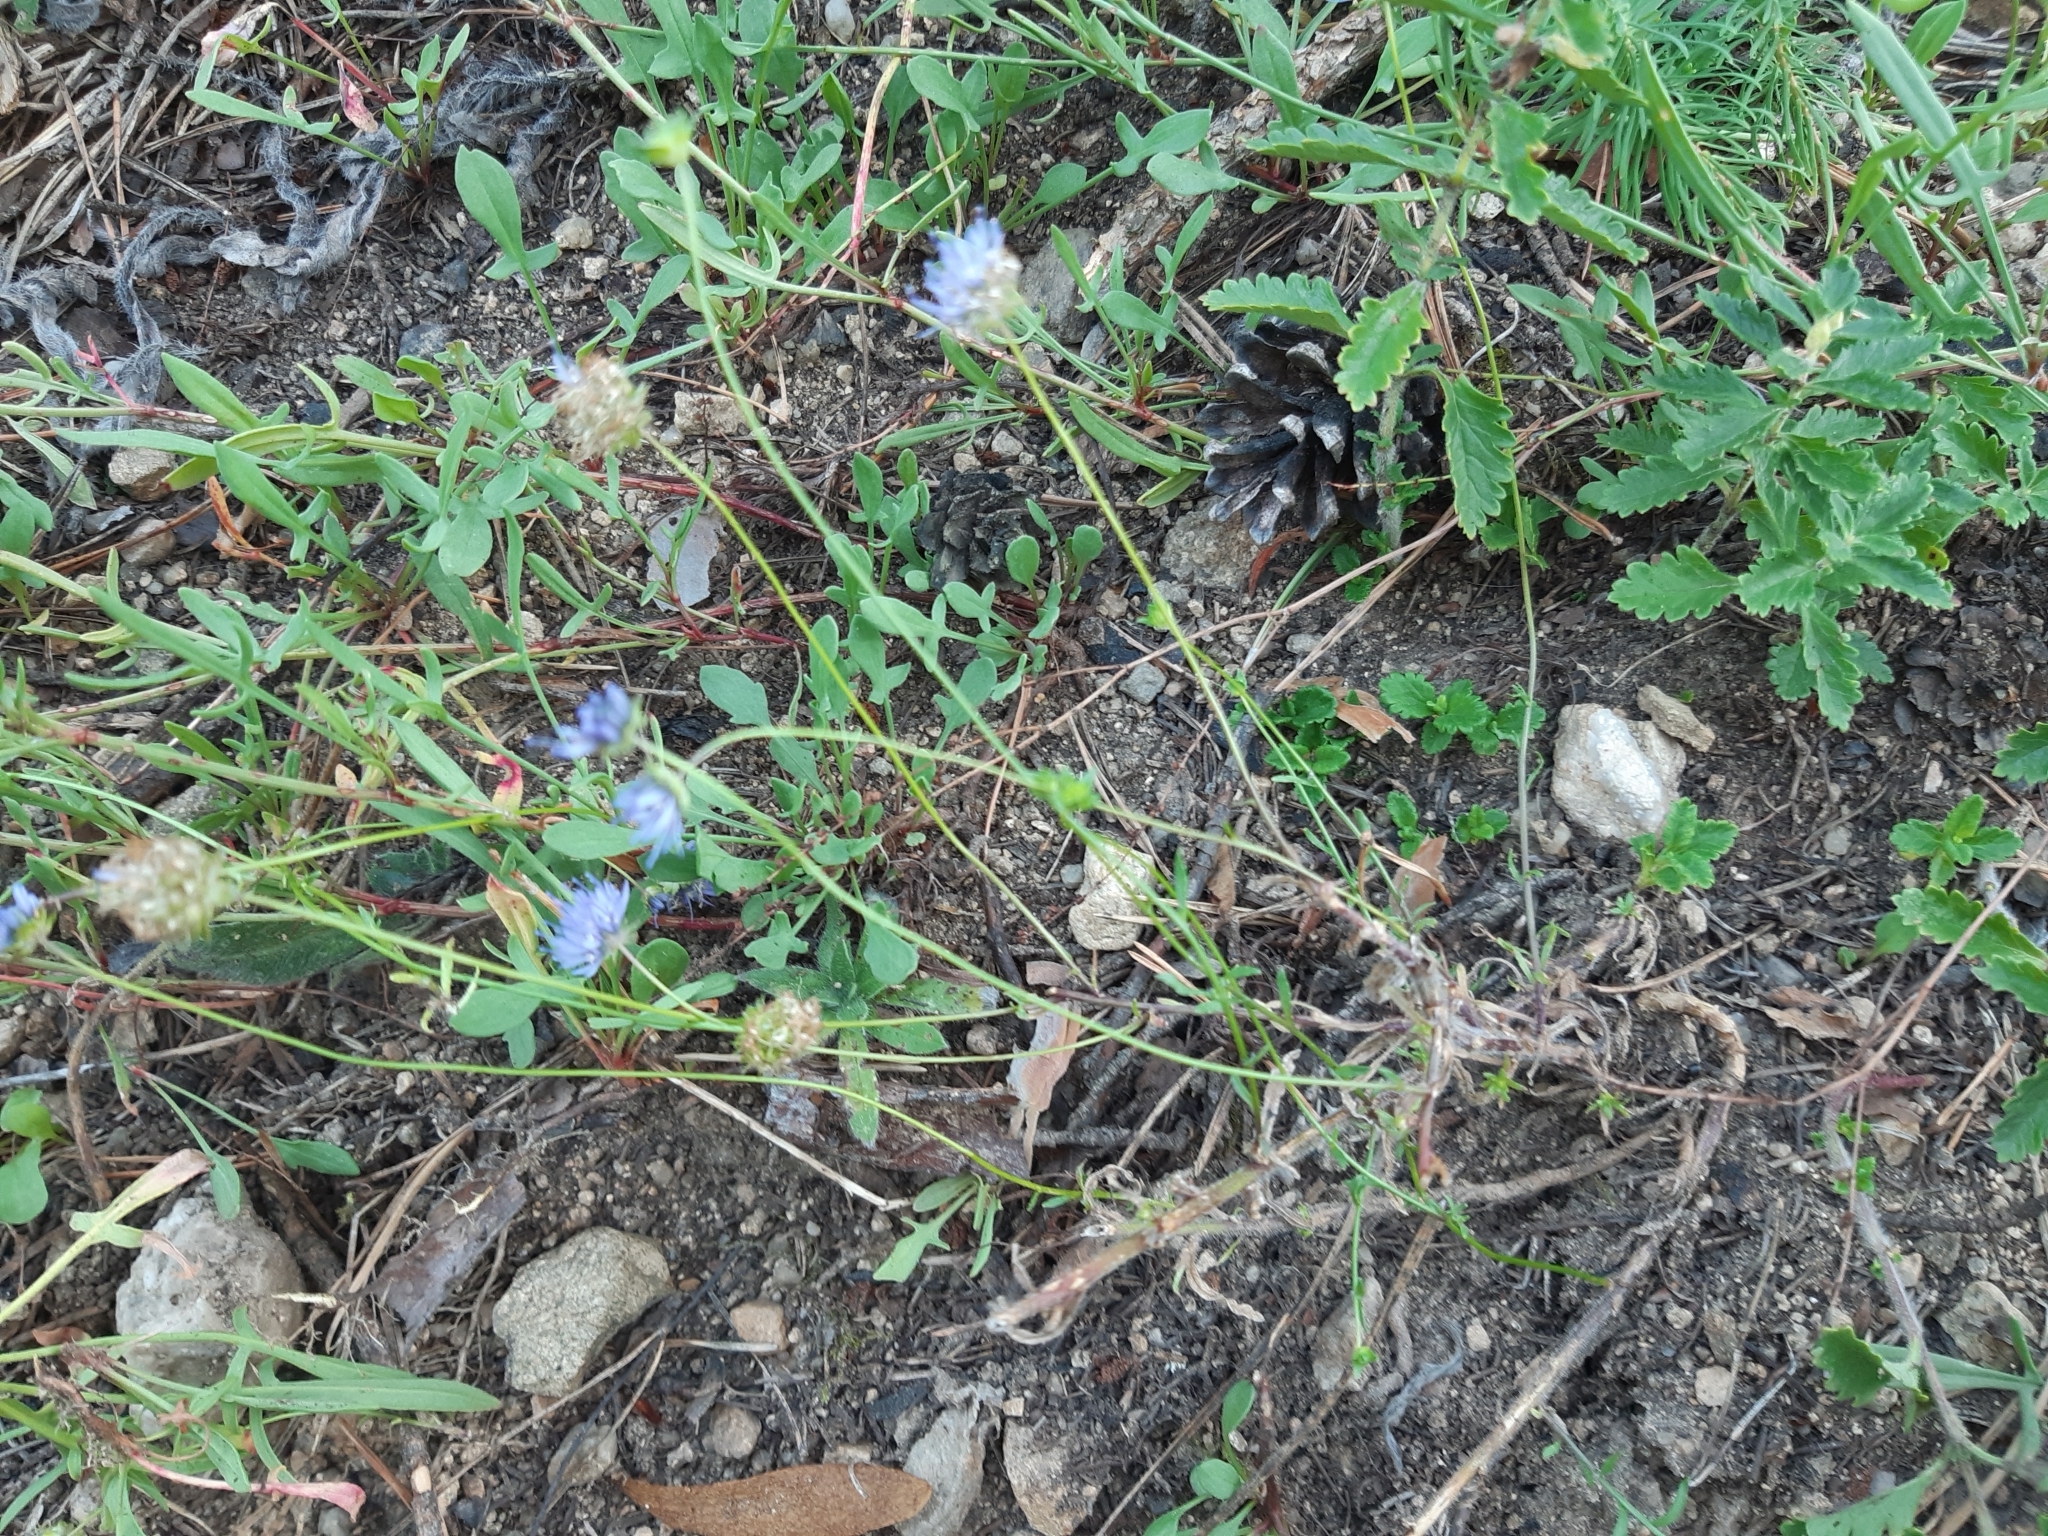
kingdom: Plantae
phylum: Tracheophyta
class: Magnoliopsida
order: Asterales
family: Campanulaceae
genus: Jasione
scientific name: Jasione montana
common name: Sheep's-bit
